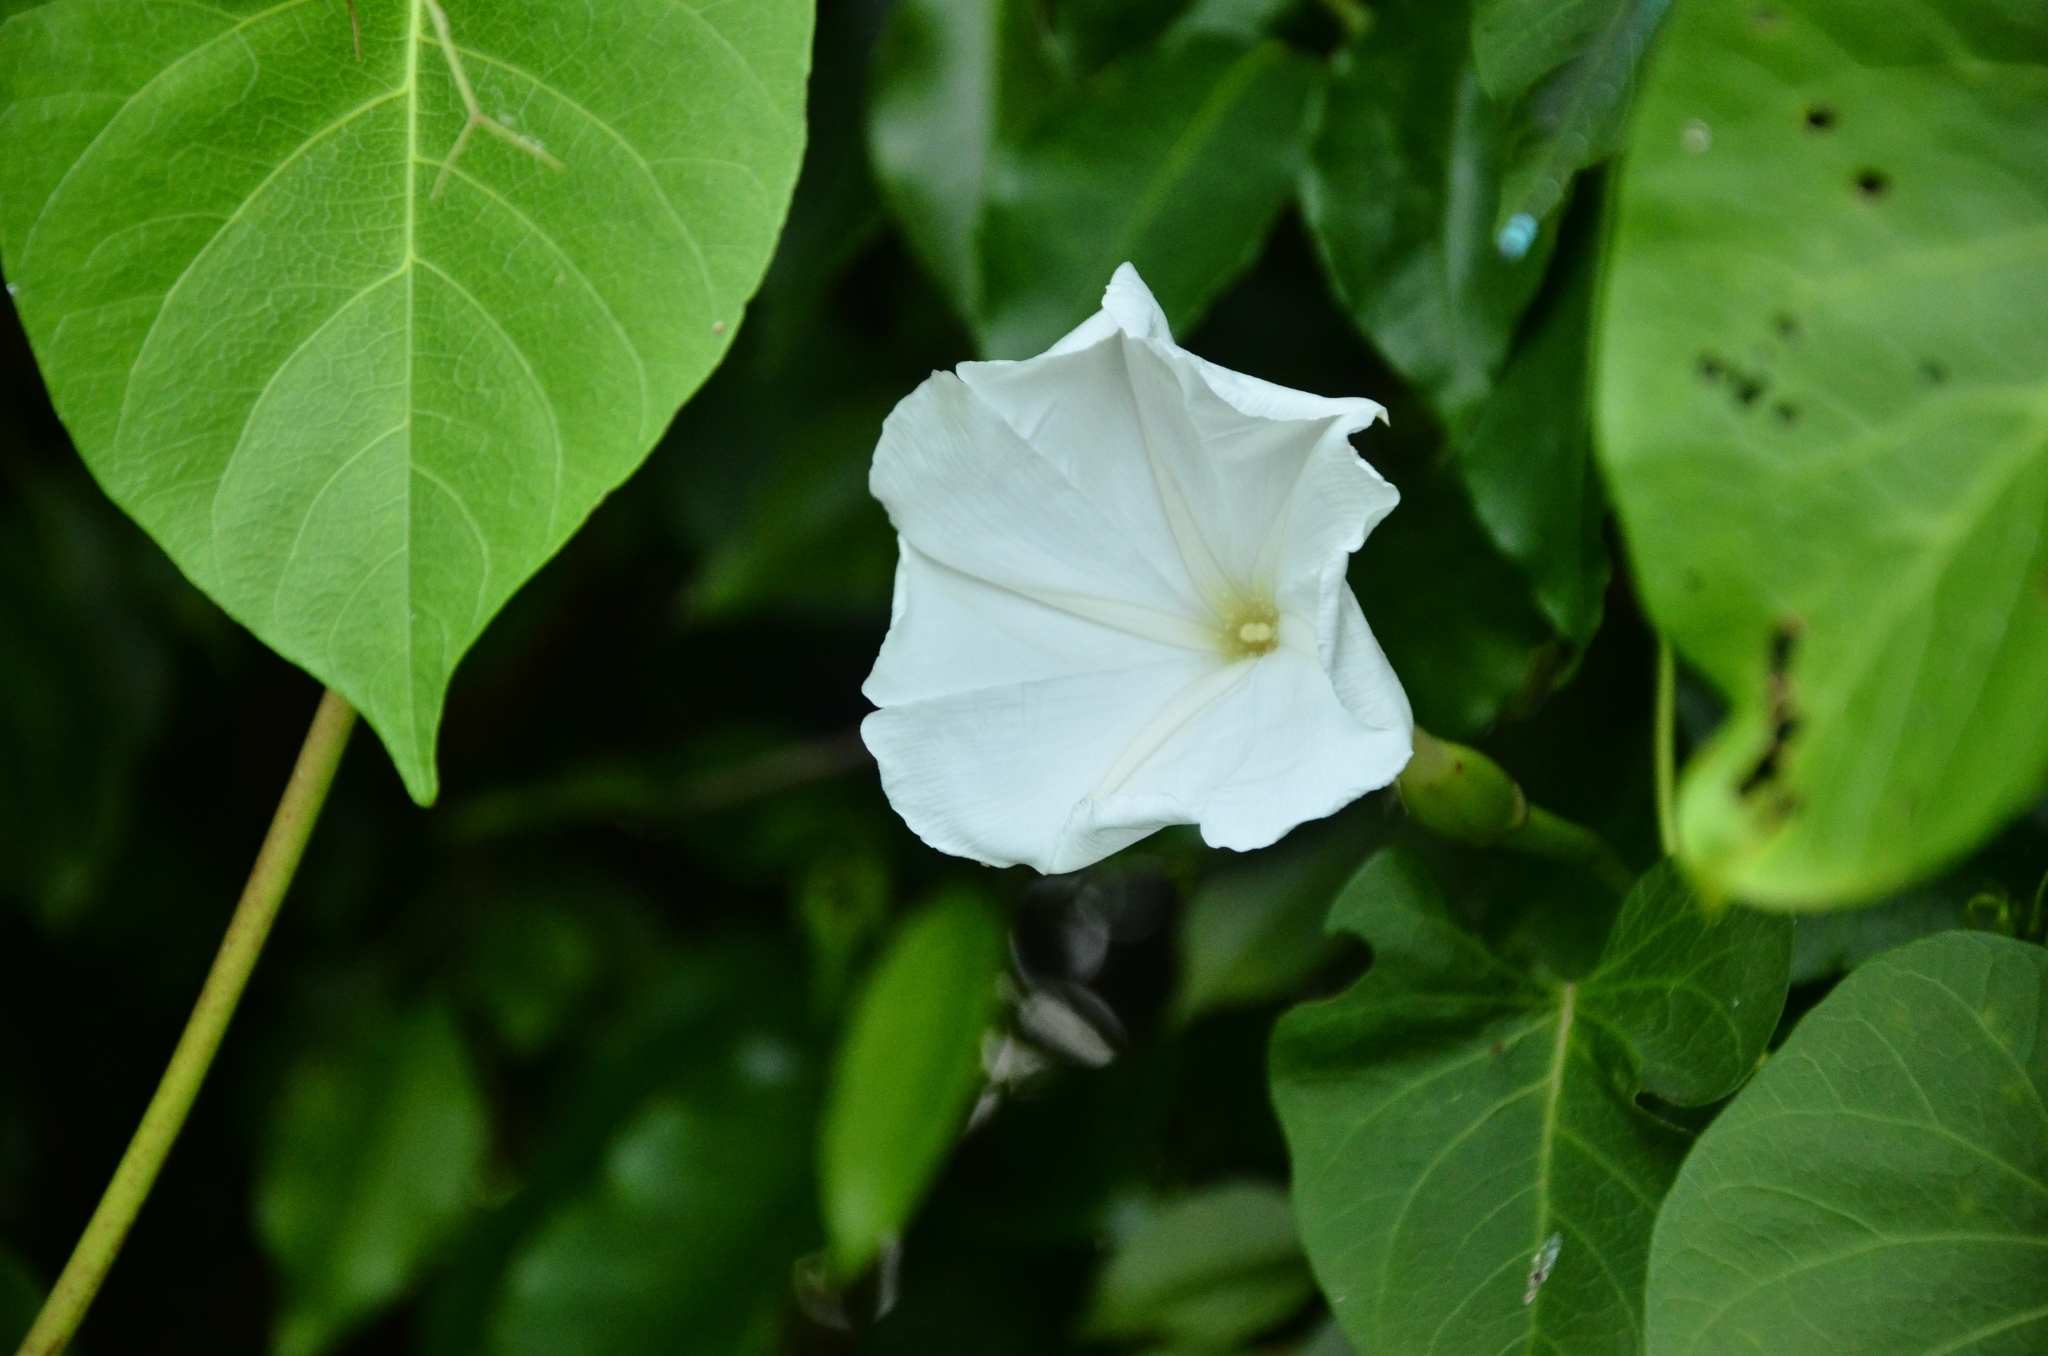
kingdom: Plantae
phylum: Tracheophyta
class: Magnoliopsida
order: Solanales
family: Convolvulaceae
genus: Ipomoea
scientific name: Ipomoea violacea
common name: Beach moonflower
